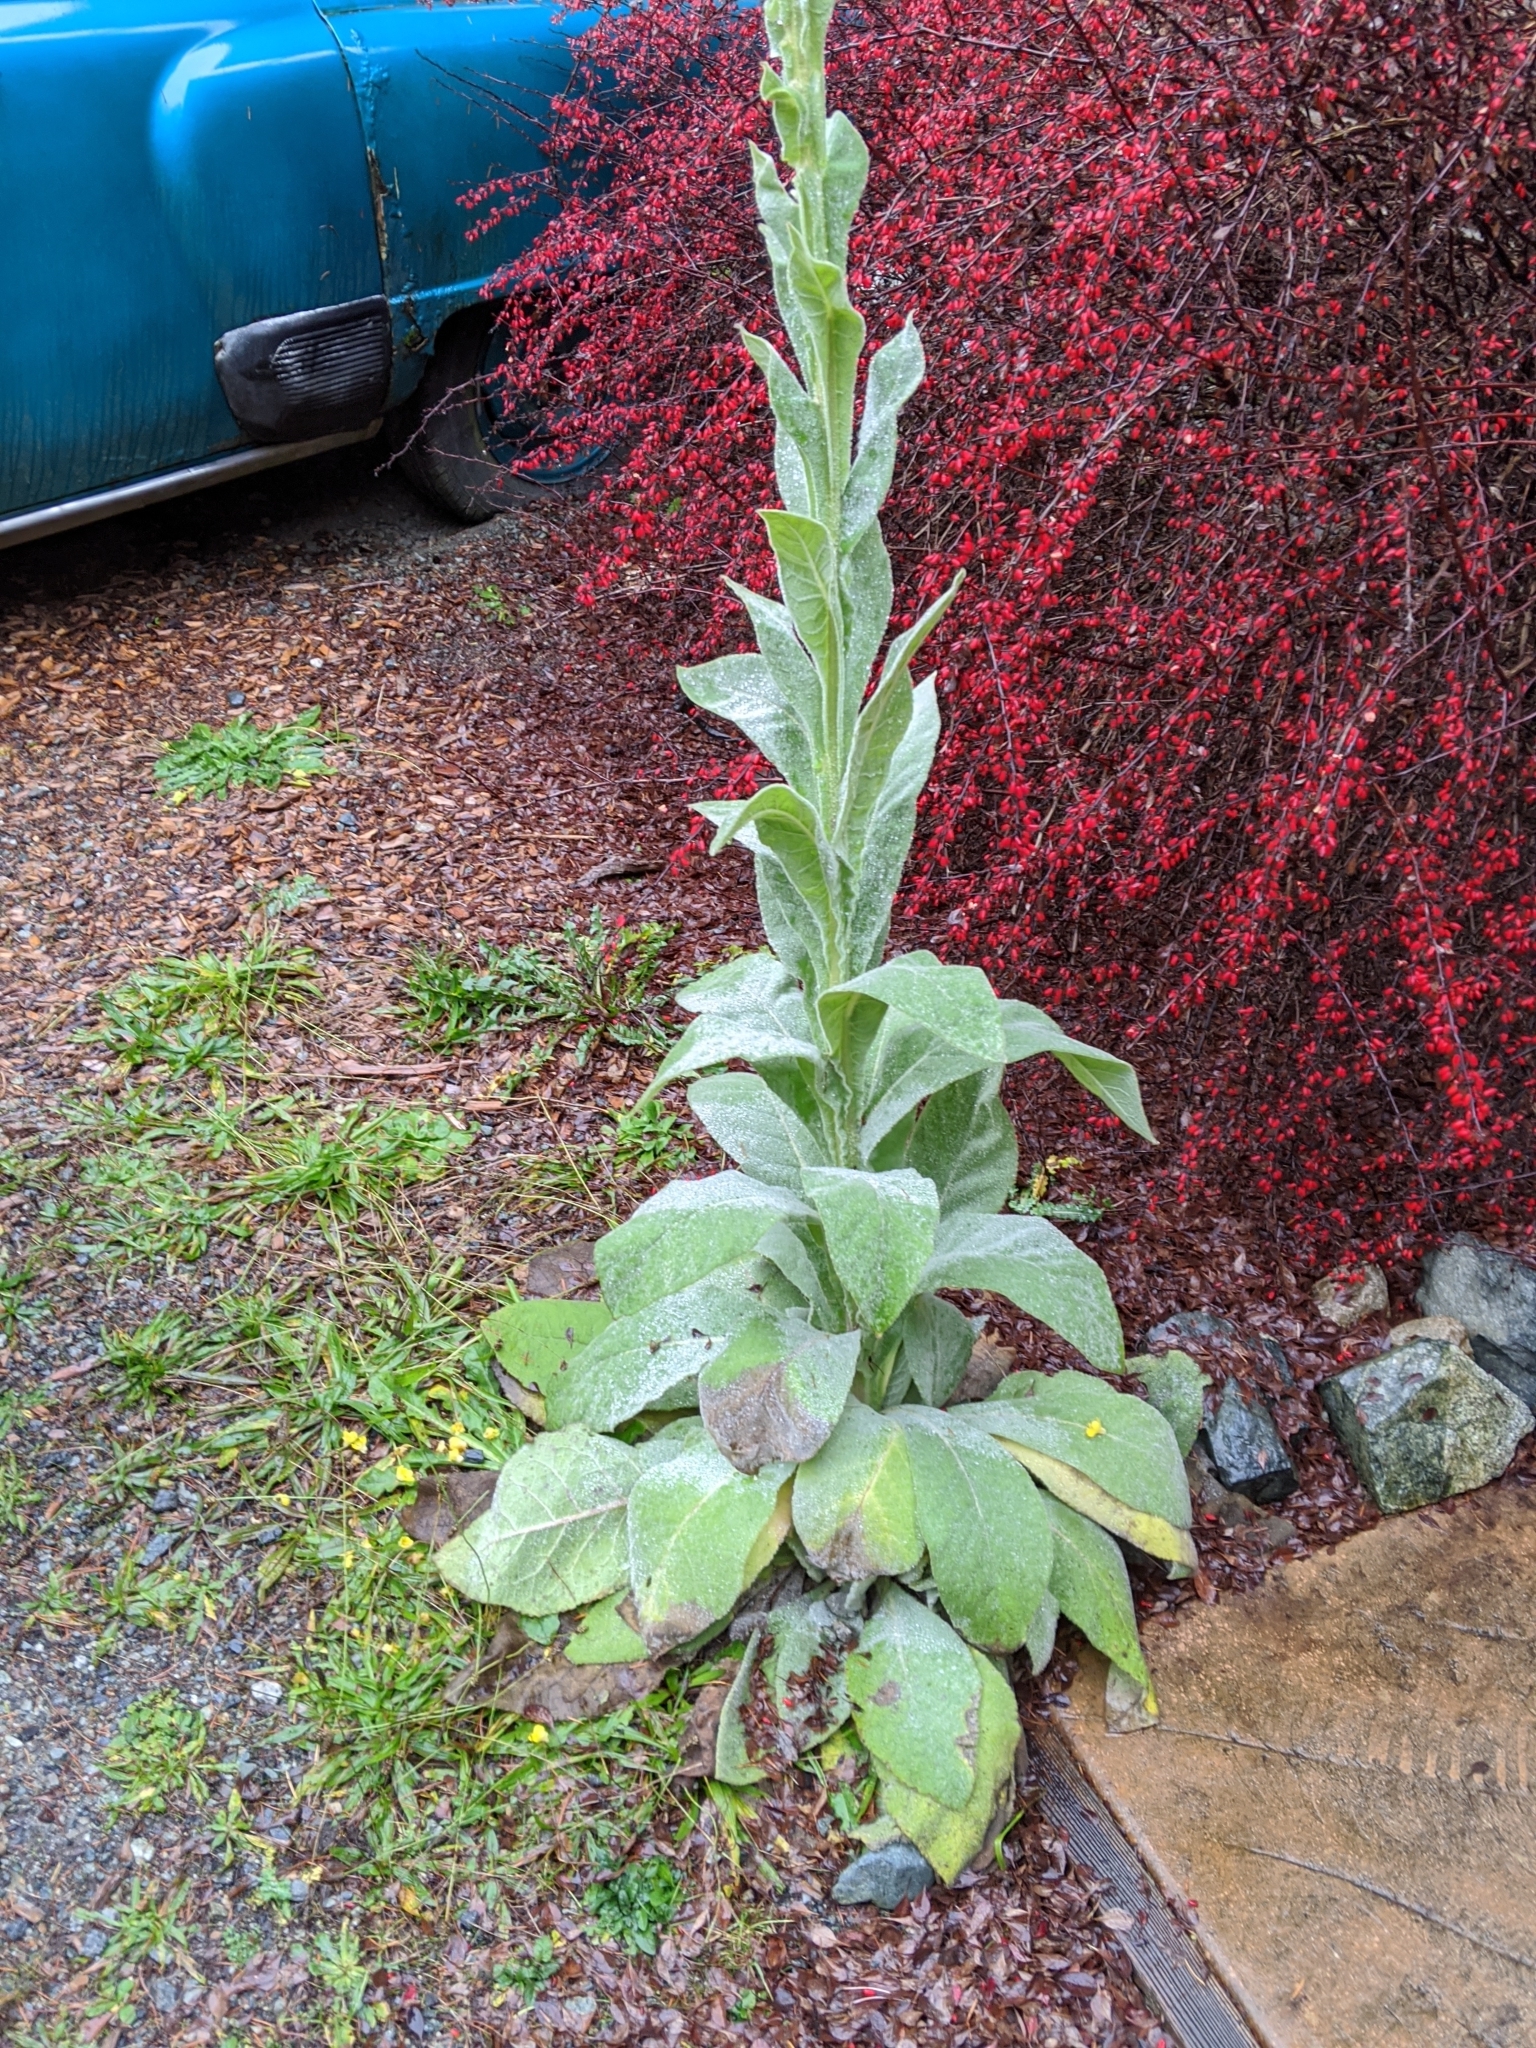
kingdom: Plantae
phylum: Tracheophyta
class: Magnoliopsida
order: Lamiales
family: Scrophulariaceae
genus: Verbascum
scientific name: Verbascum thapsus
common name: Common mullein
